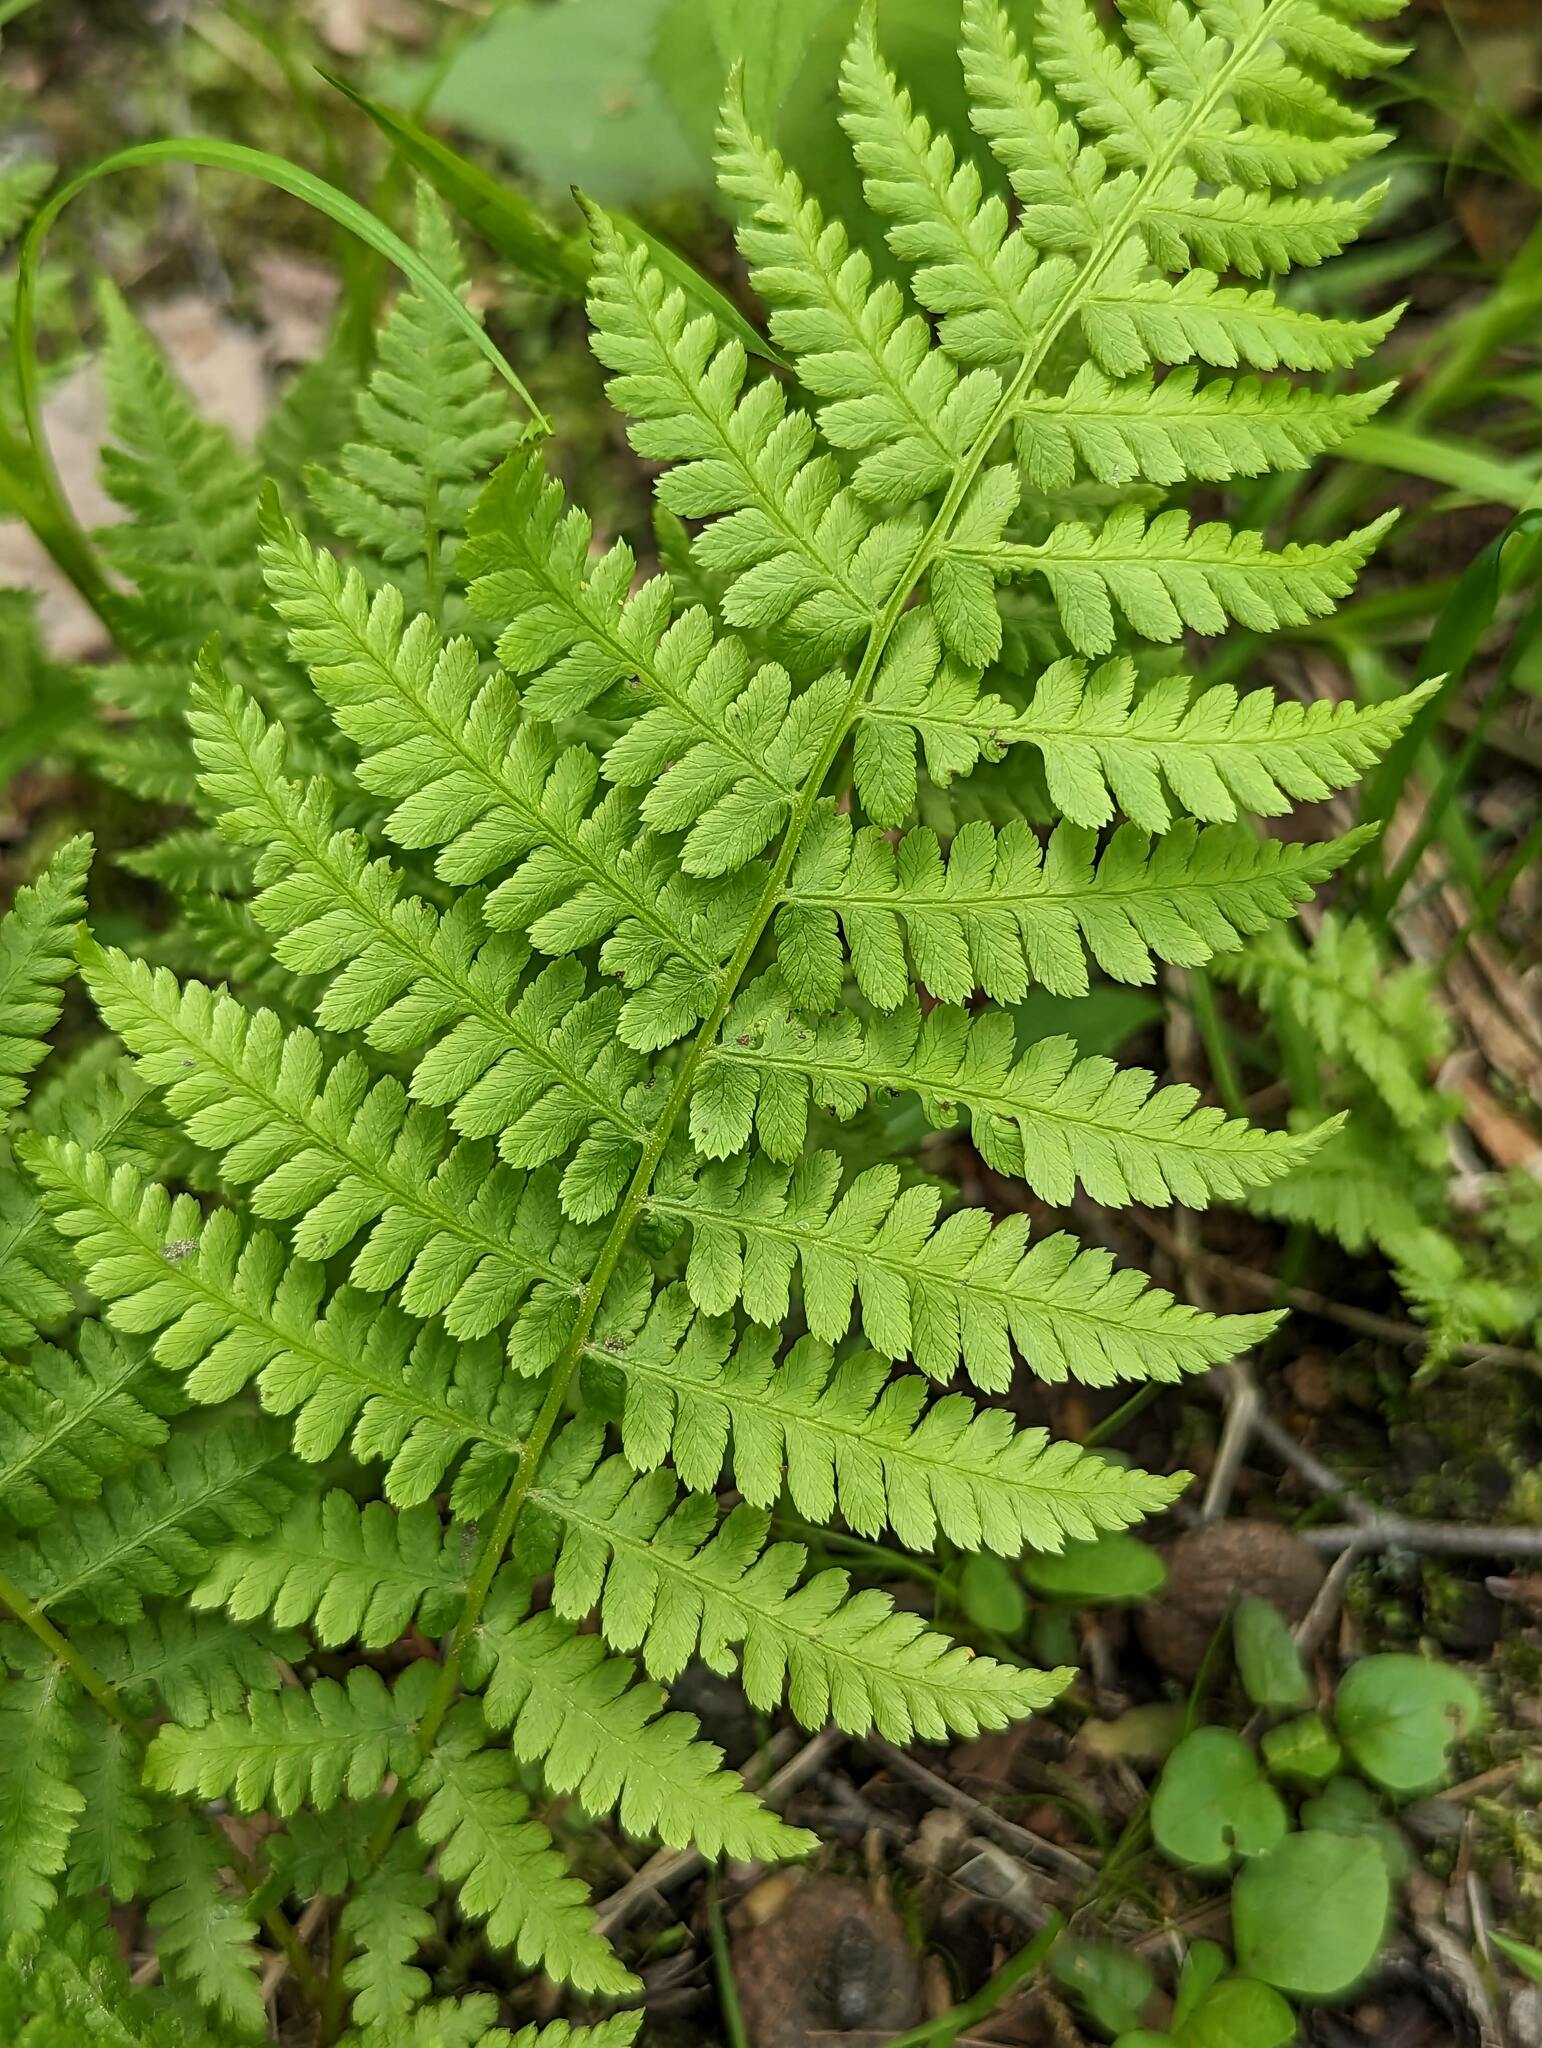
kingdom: Plantae
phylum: Tracheophyta
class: Polypodiopsida
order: Polypodiales
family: Athyriaceae
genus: Athyrium
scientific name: Athyrium angustum
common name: Northern lady fern
